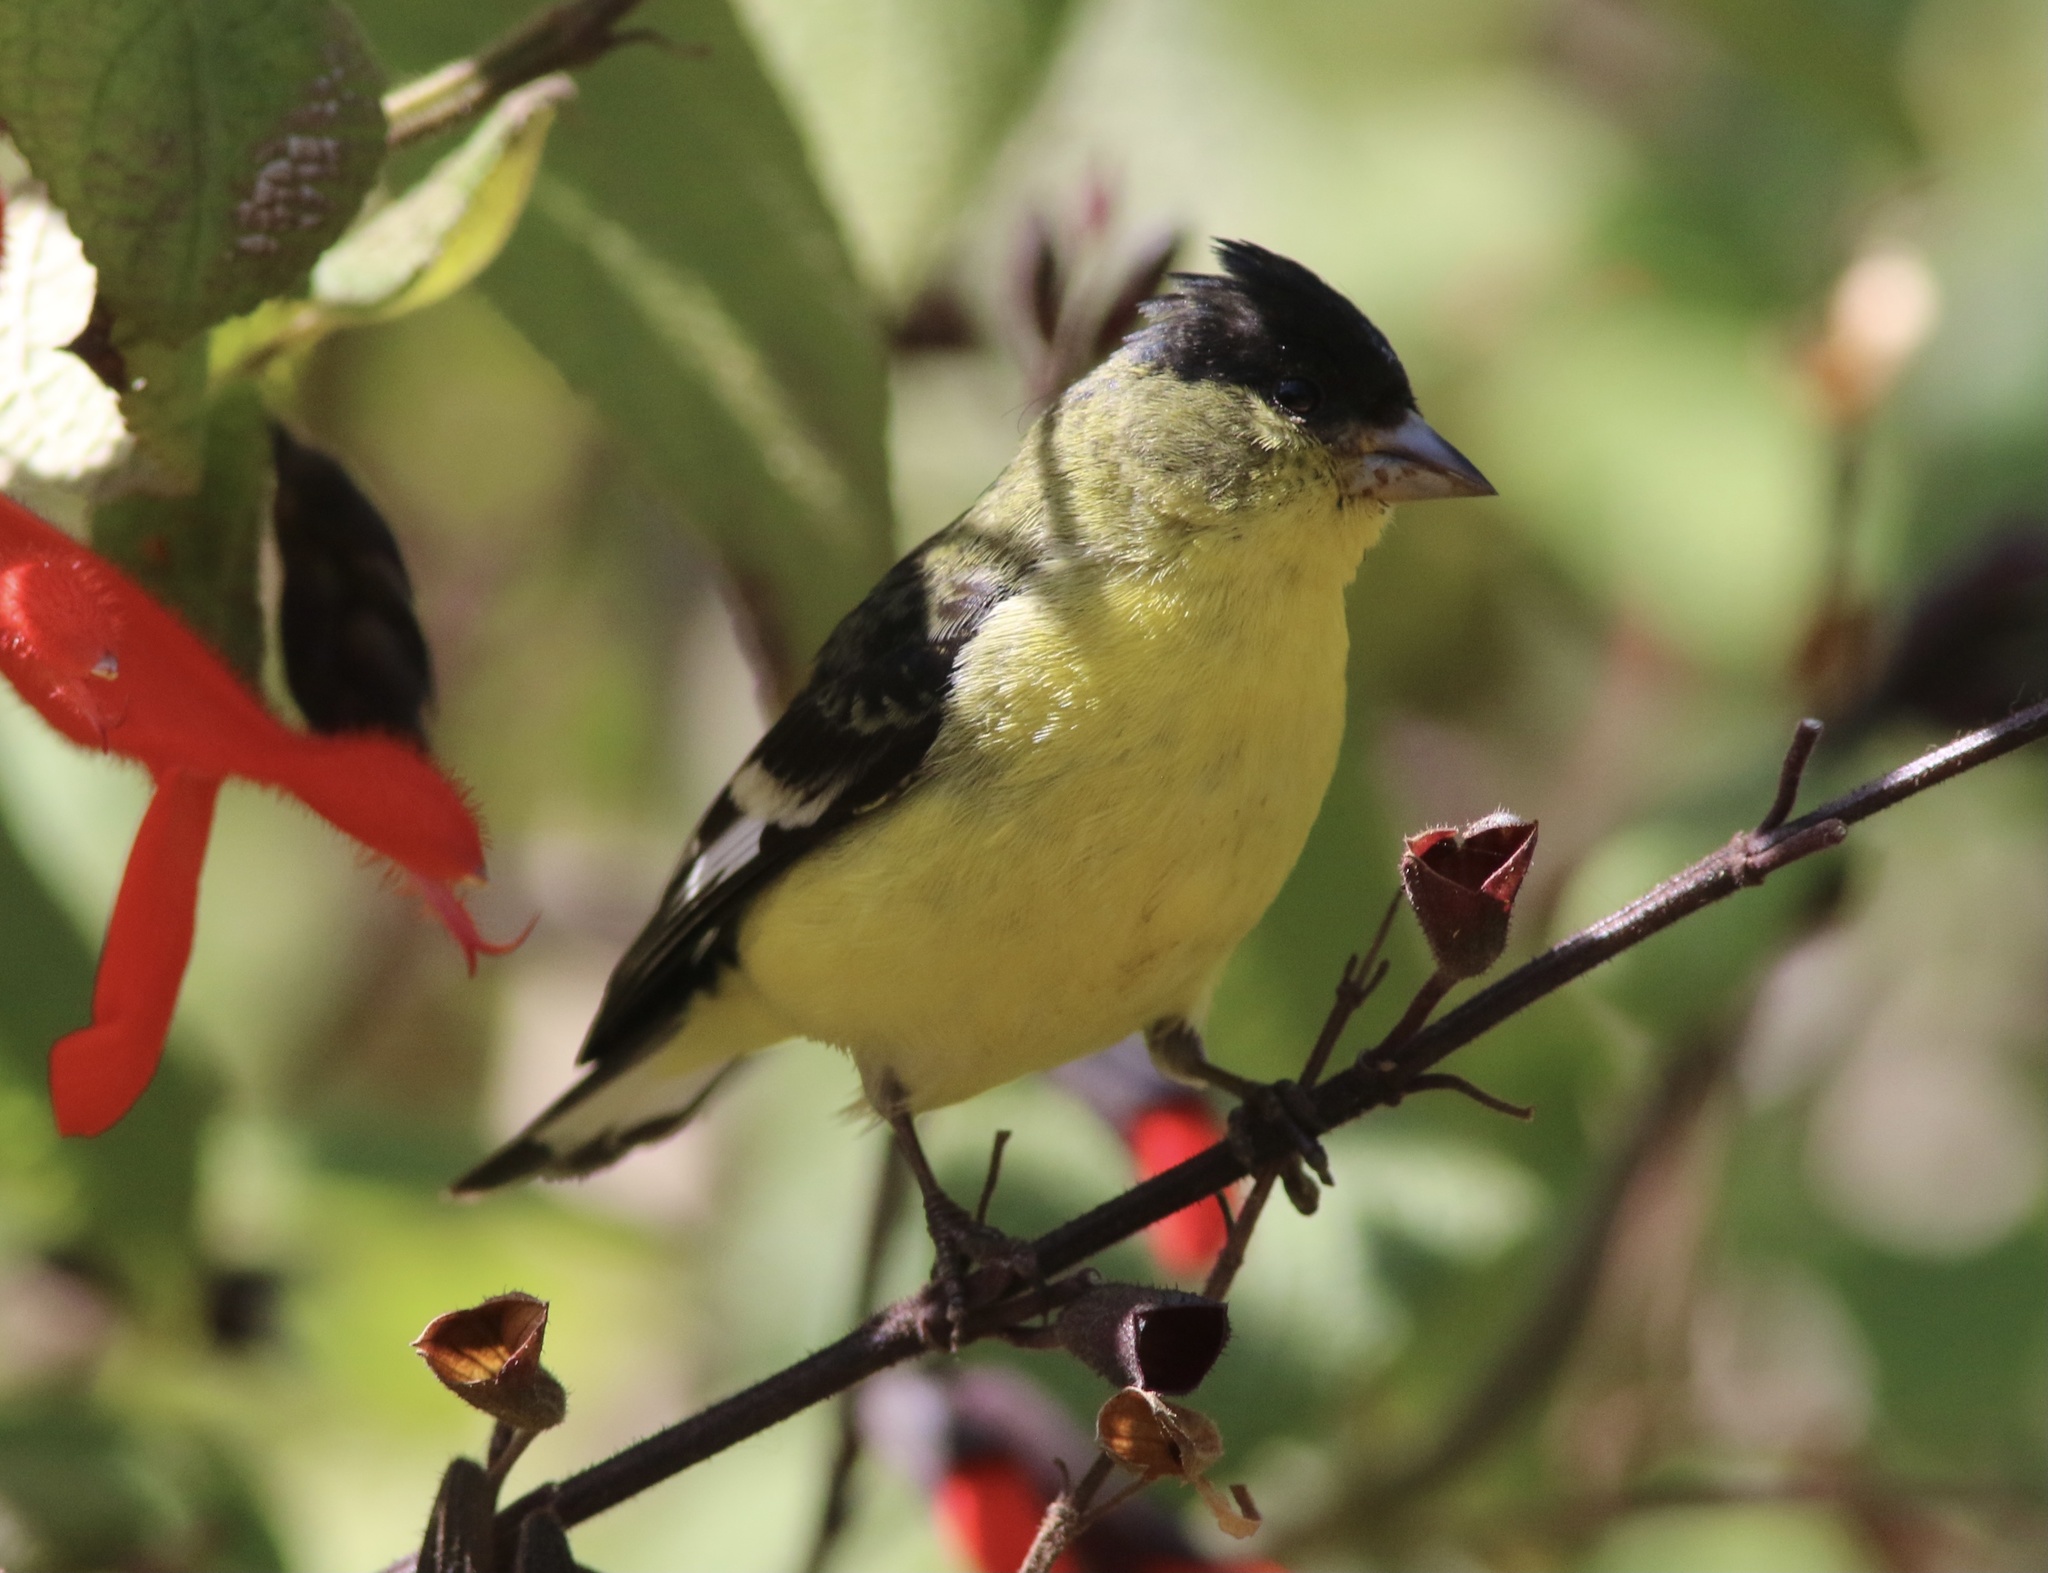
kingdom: Animalia
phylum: Chordata
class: Aves
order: Passeriformes
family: Fringillidae
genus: Spinus
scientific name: Spinus psaltria
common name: Lesser goldfinch
